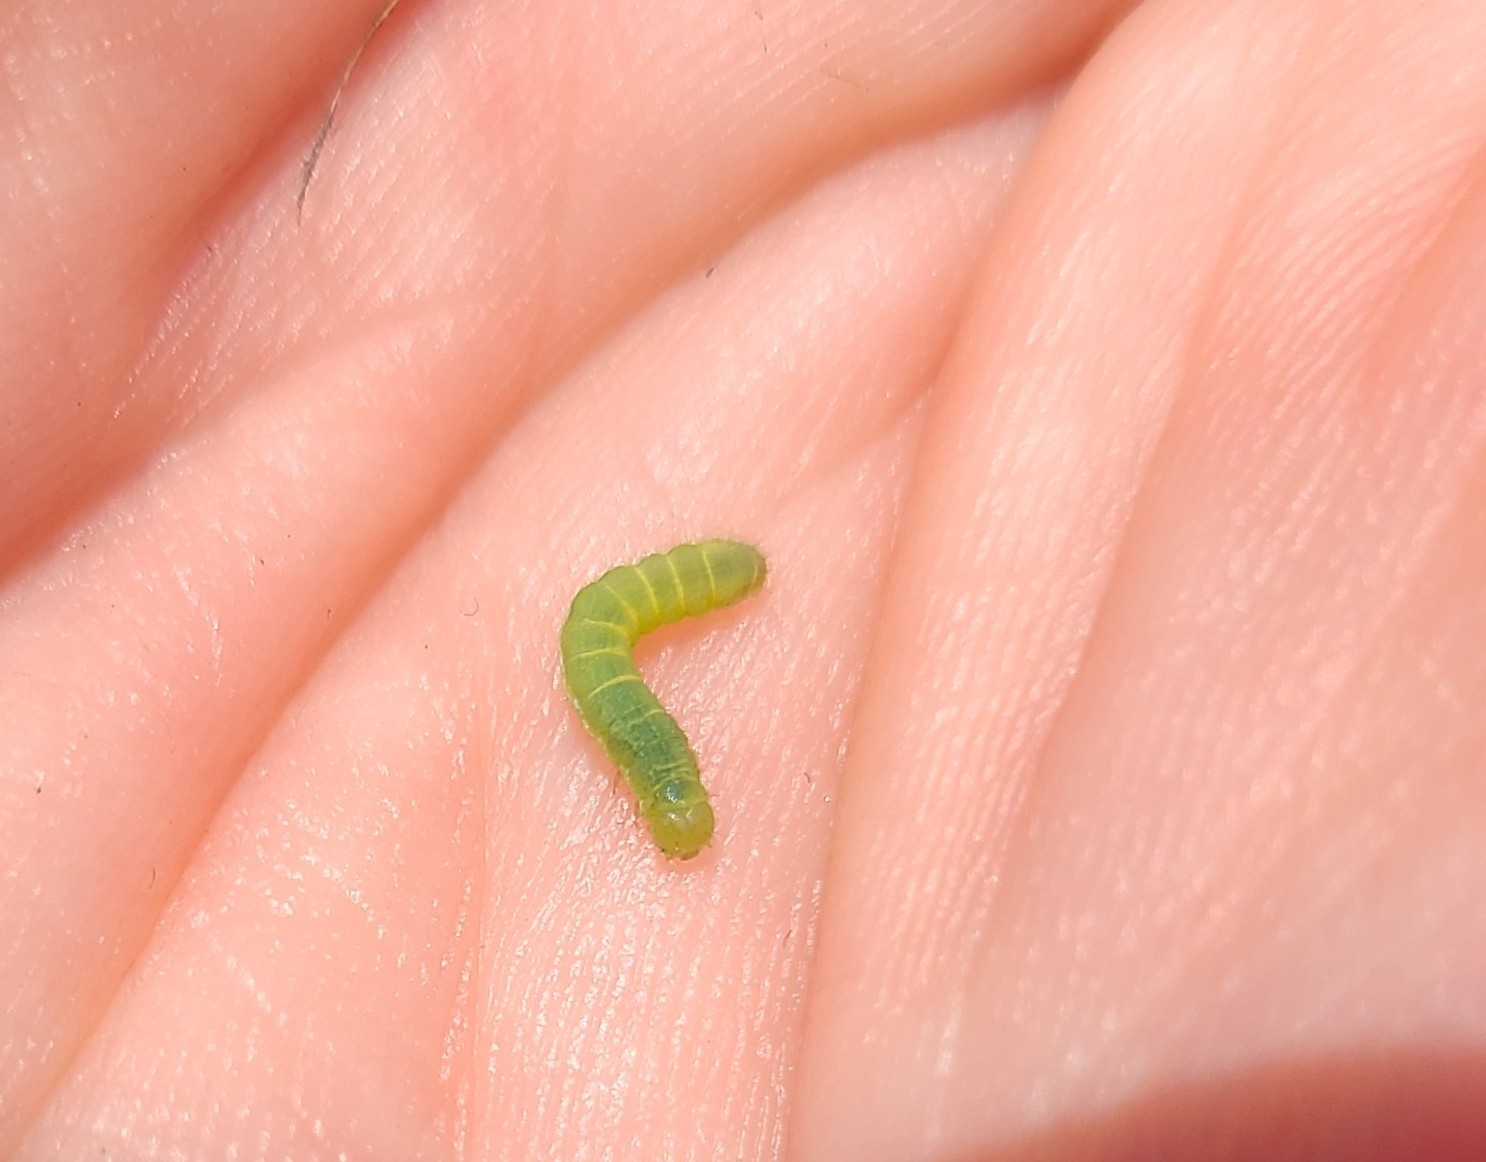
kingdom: Animalia
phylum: Arthropoda
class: Insecta
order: Lepidoptera
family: Pieridae
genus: Pieris
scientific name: Pieris rapae
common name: Small white
